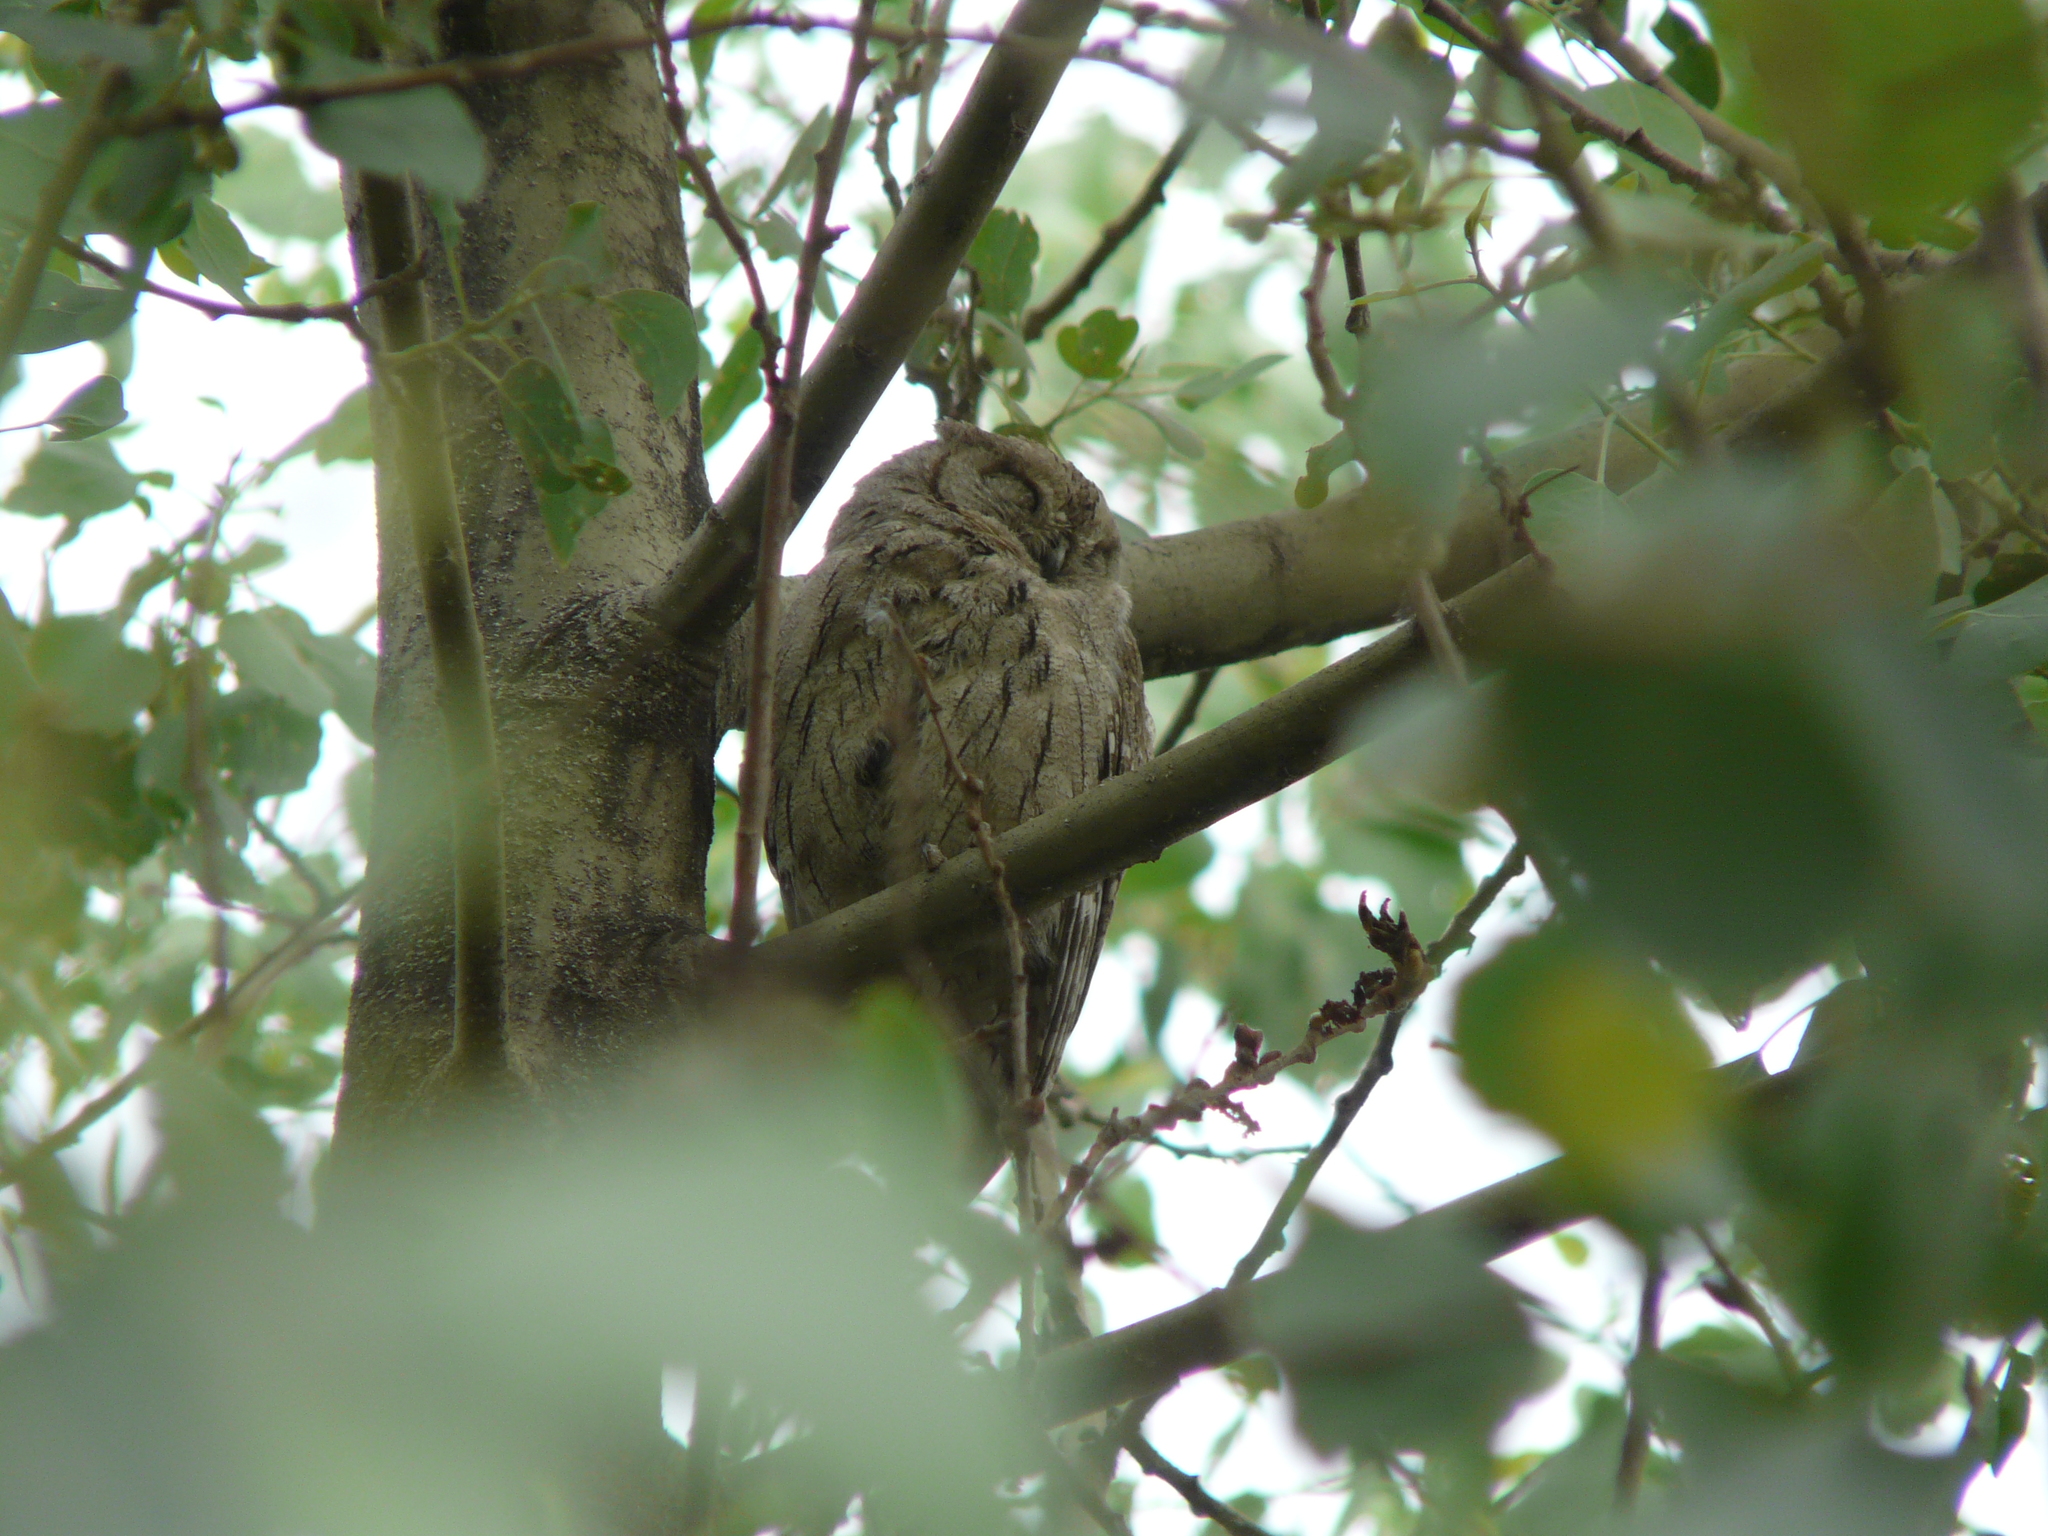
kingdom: Animalia
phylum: Chordata
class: Aves
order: Strigiformes
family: Strigidae
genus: Otus
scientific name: Otus brucei
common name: Pallid scops owl
